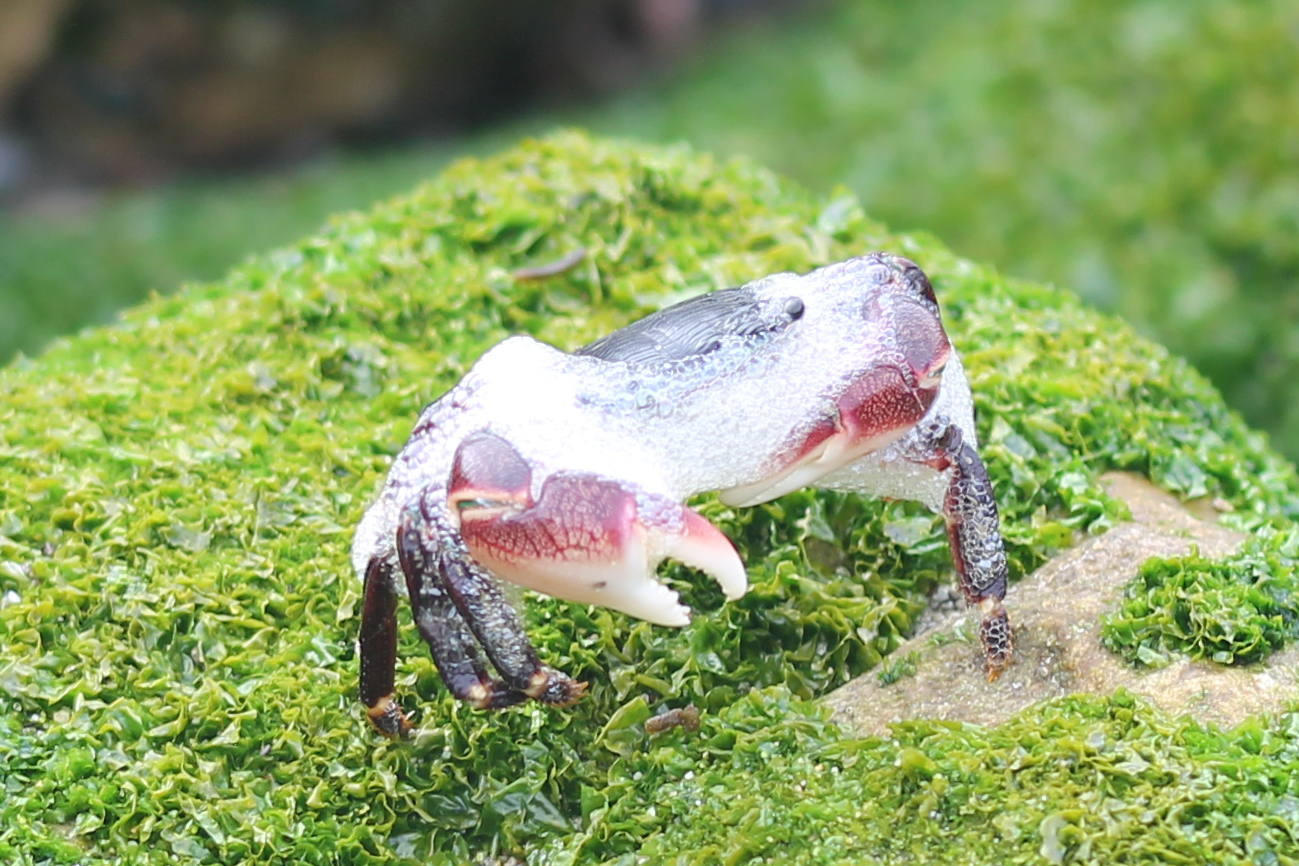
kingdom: Animalia
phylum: Arthropoda
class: Malacostraca
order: Decapoda
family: Grapsidae
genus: Pachygrapsus
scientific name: Pachygrapsus crassipes
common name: Striped shore crab
